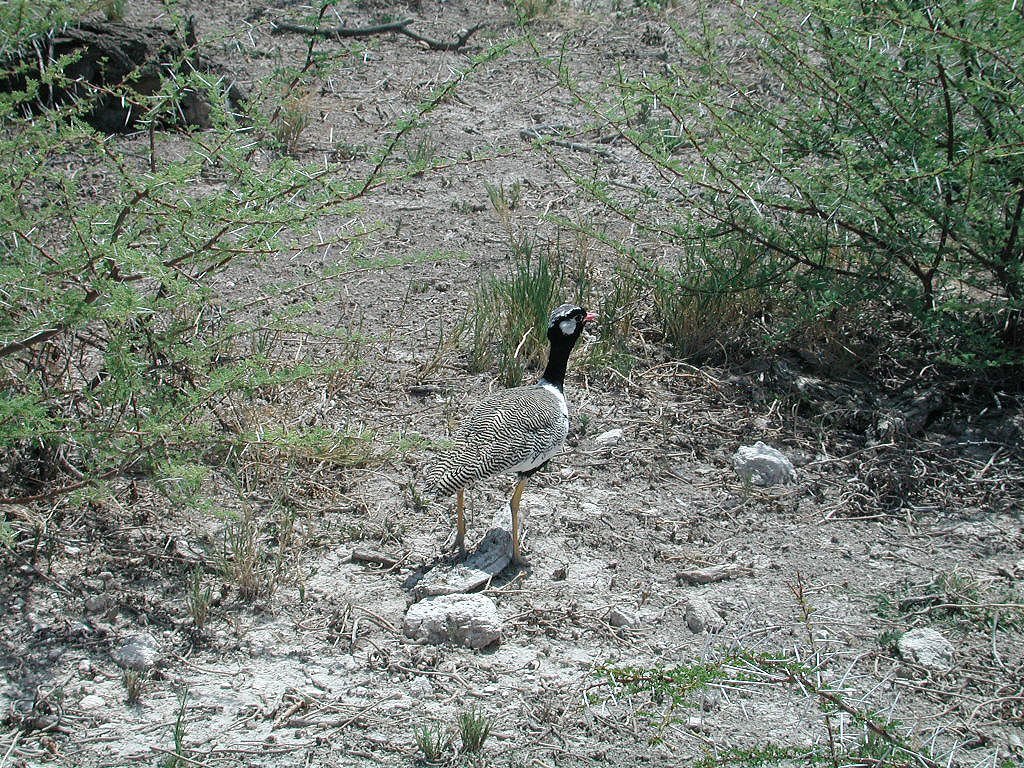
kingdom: Animalia
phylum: Chordata
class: Aves
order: Otidiformes
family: Otididae
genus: Afrotis
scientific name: Afrotis afraoides
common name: Northern black korhaan
